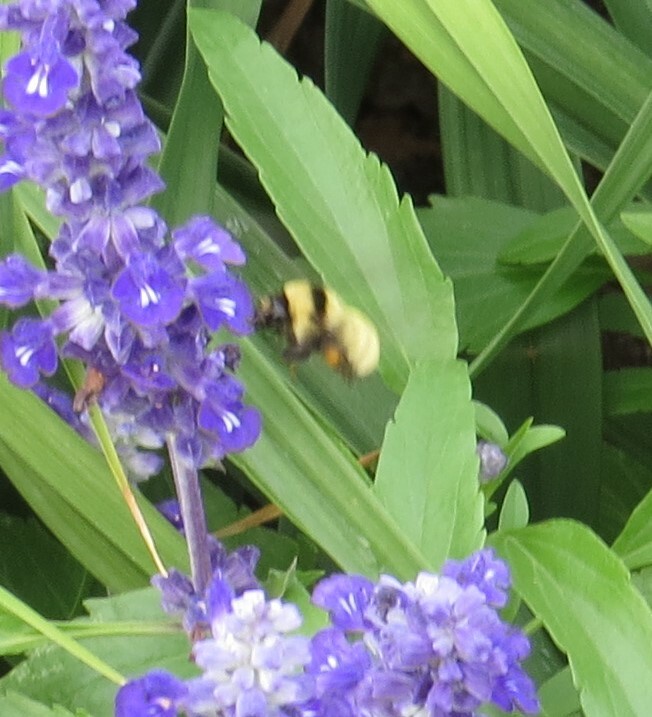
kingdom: Animalia
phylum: Arthropoda
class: Insecta
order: Hymenoptera
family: Apidae
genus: Bombus
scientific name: Bombus fervidus
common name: Yellow bumble bee
